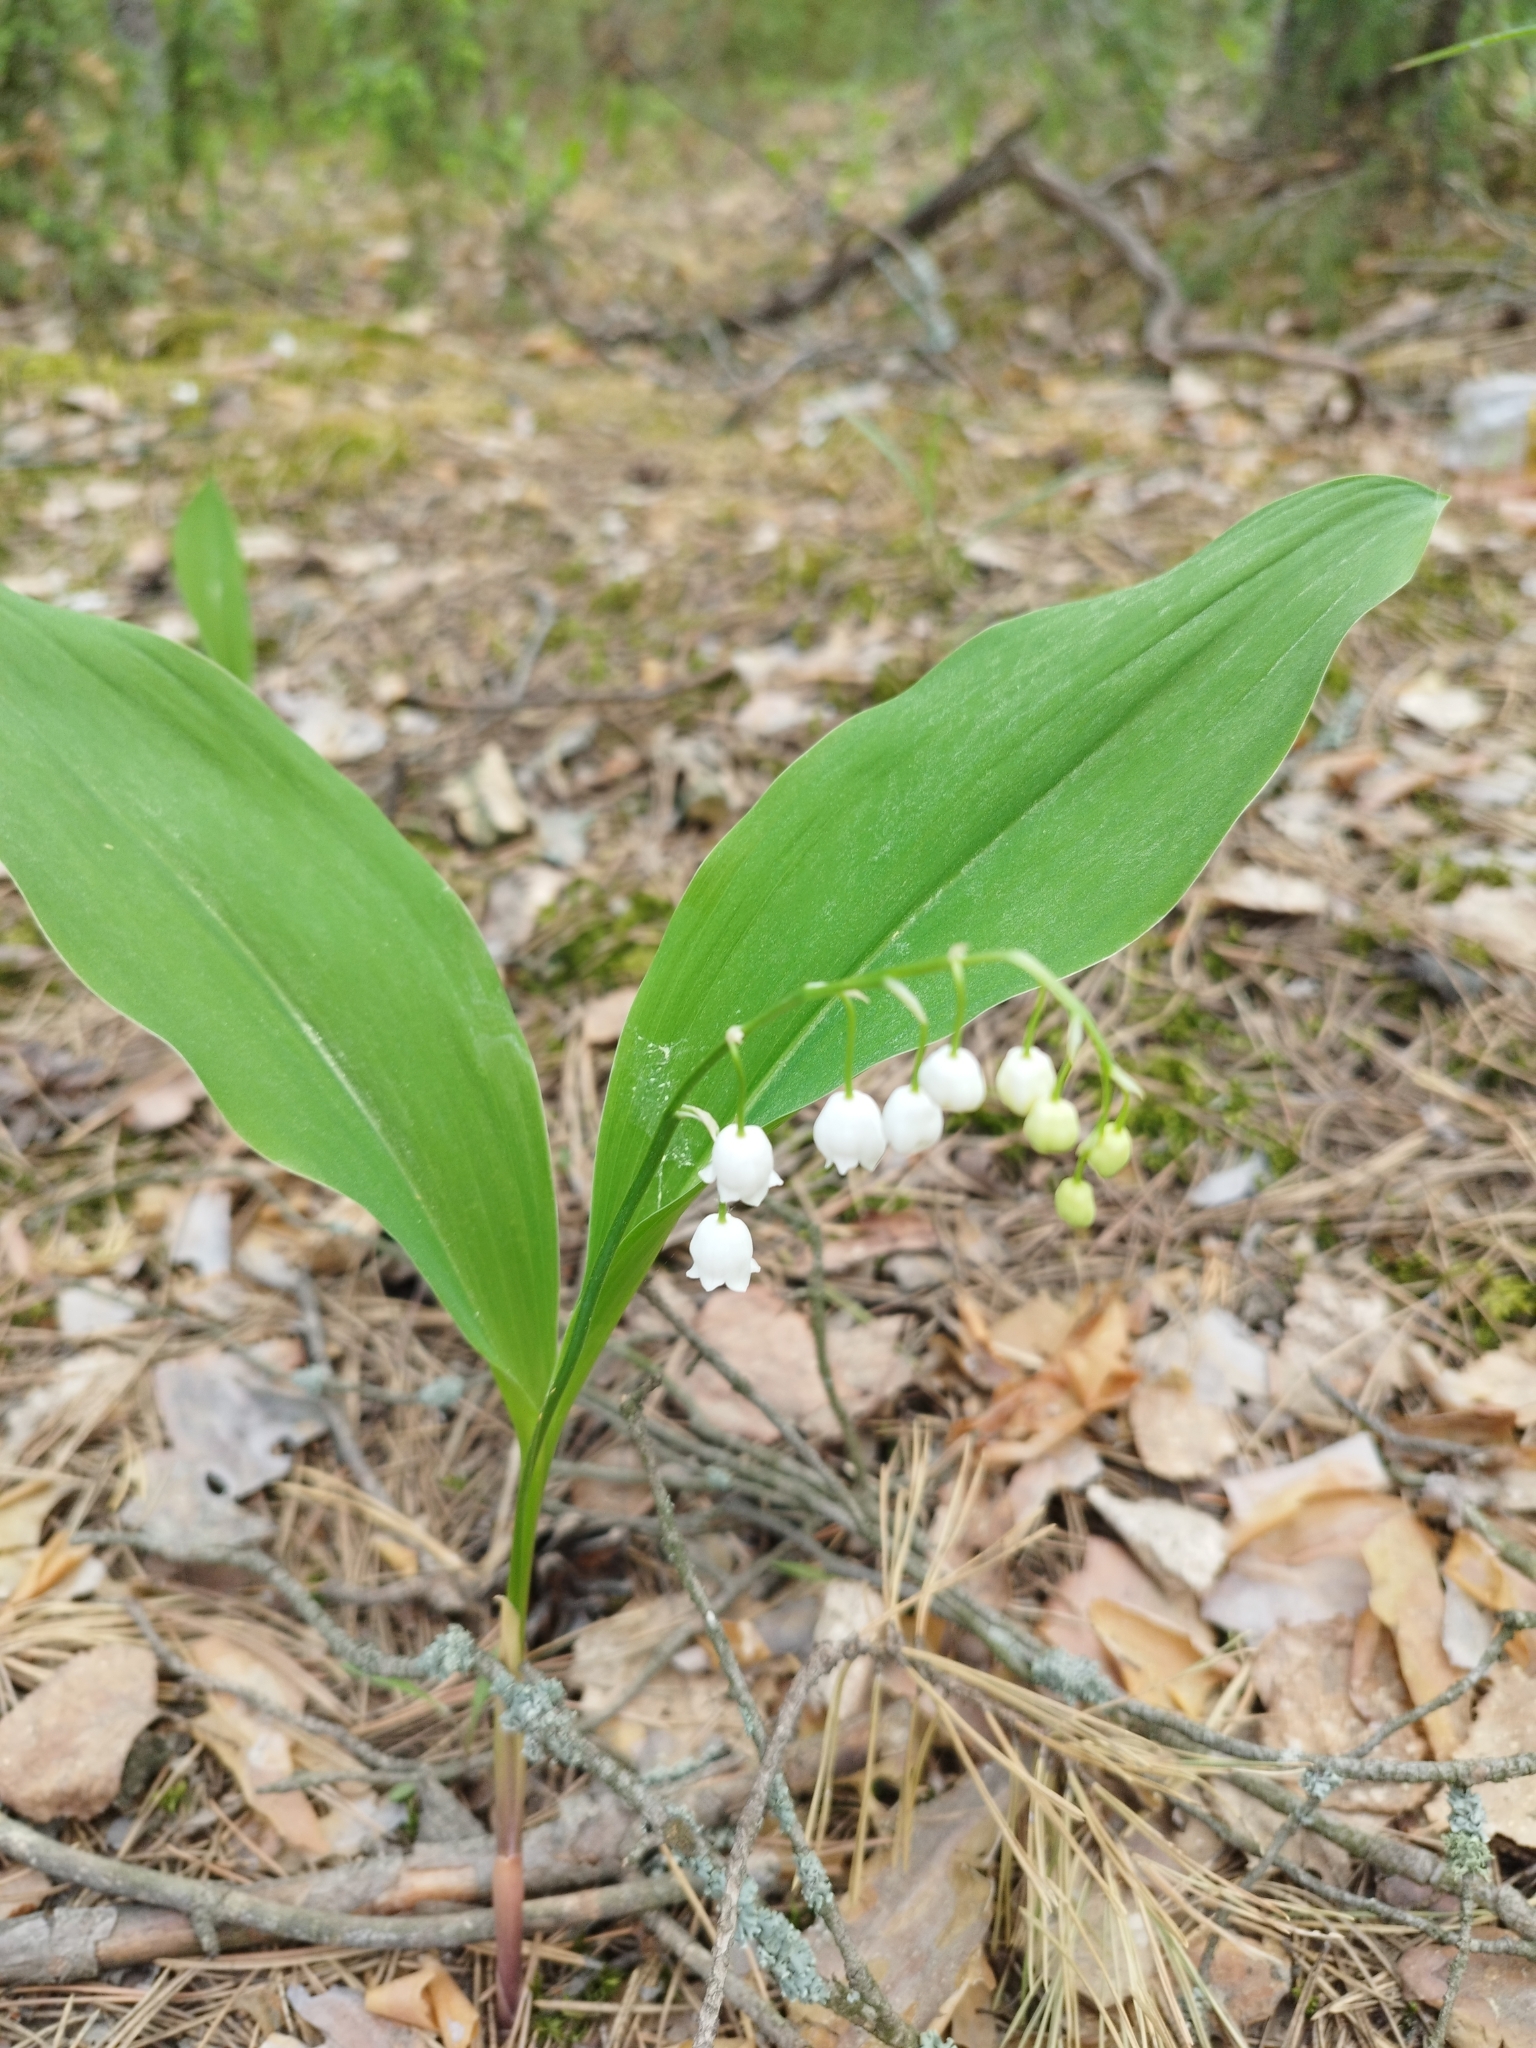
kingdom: Plantae
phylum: Tracheophyta
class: Liliopsida
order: Asparagales
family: Asparagaceae
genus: Convallaria
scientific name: Convallaria majalis
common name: Lily-of-the-valley
